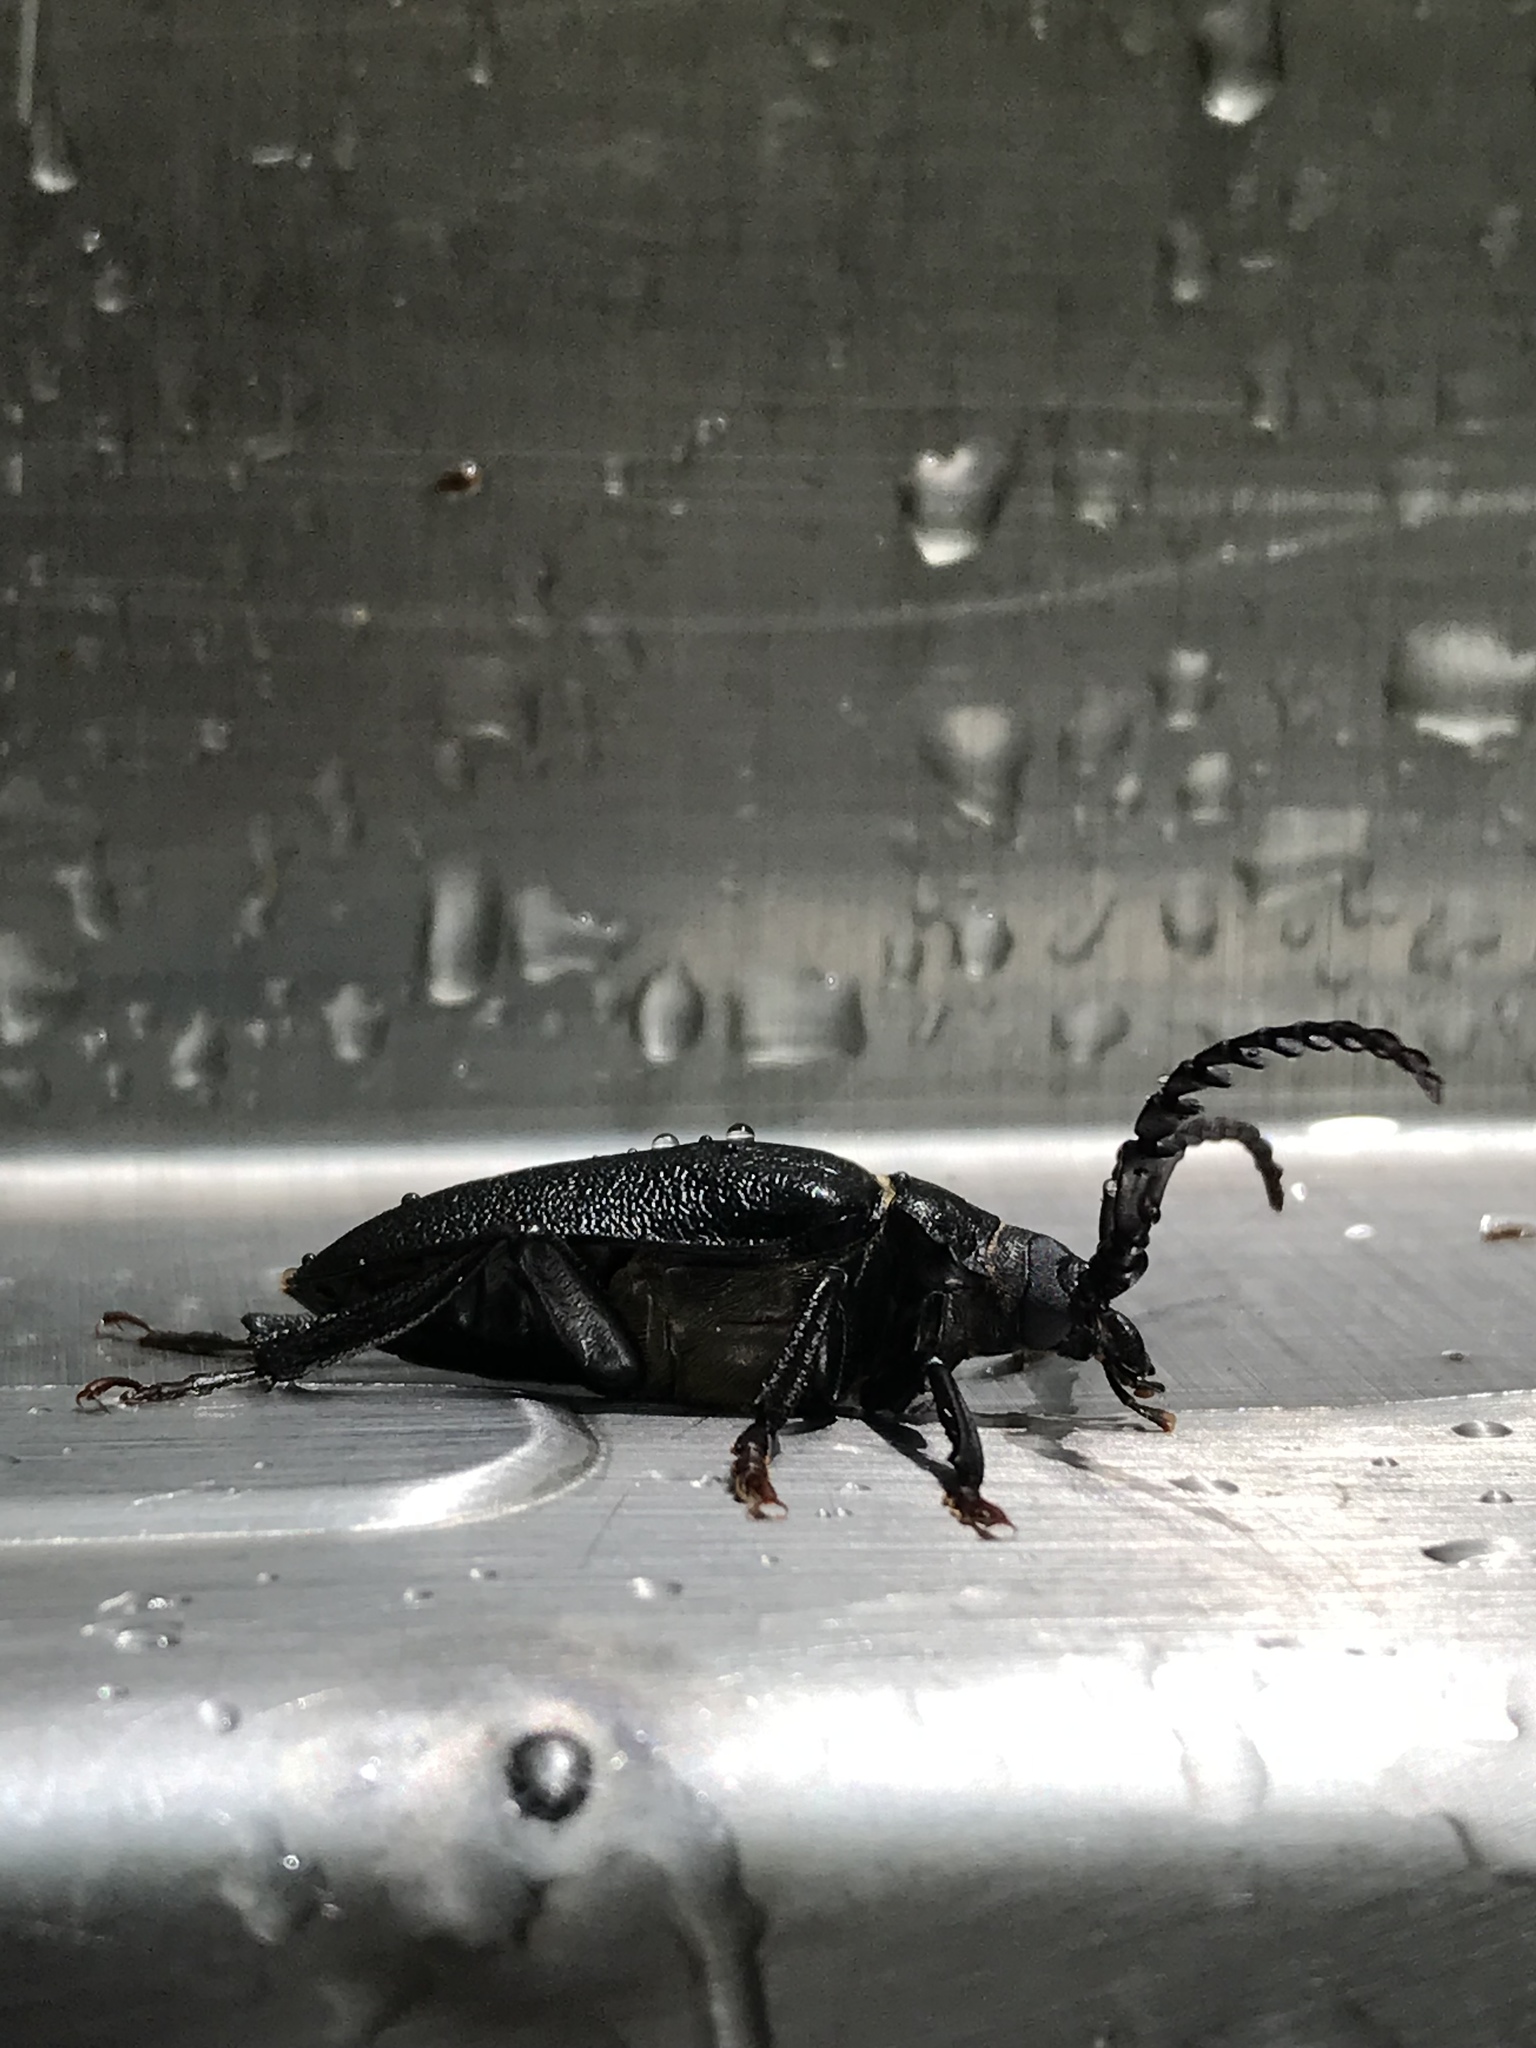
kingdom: Animalia
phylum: Arthropoda
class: Insecta
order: Coleoptera
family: Cerambycidae
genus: Prionus
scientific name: Prionus laticollis
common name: Broad necked prionus
